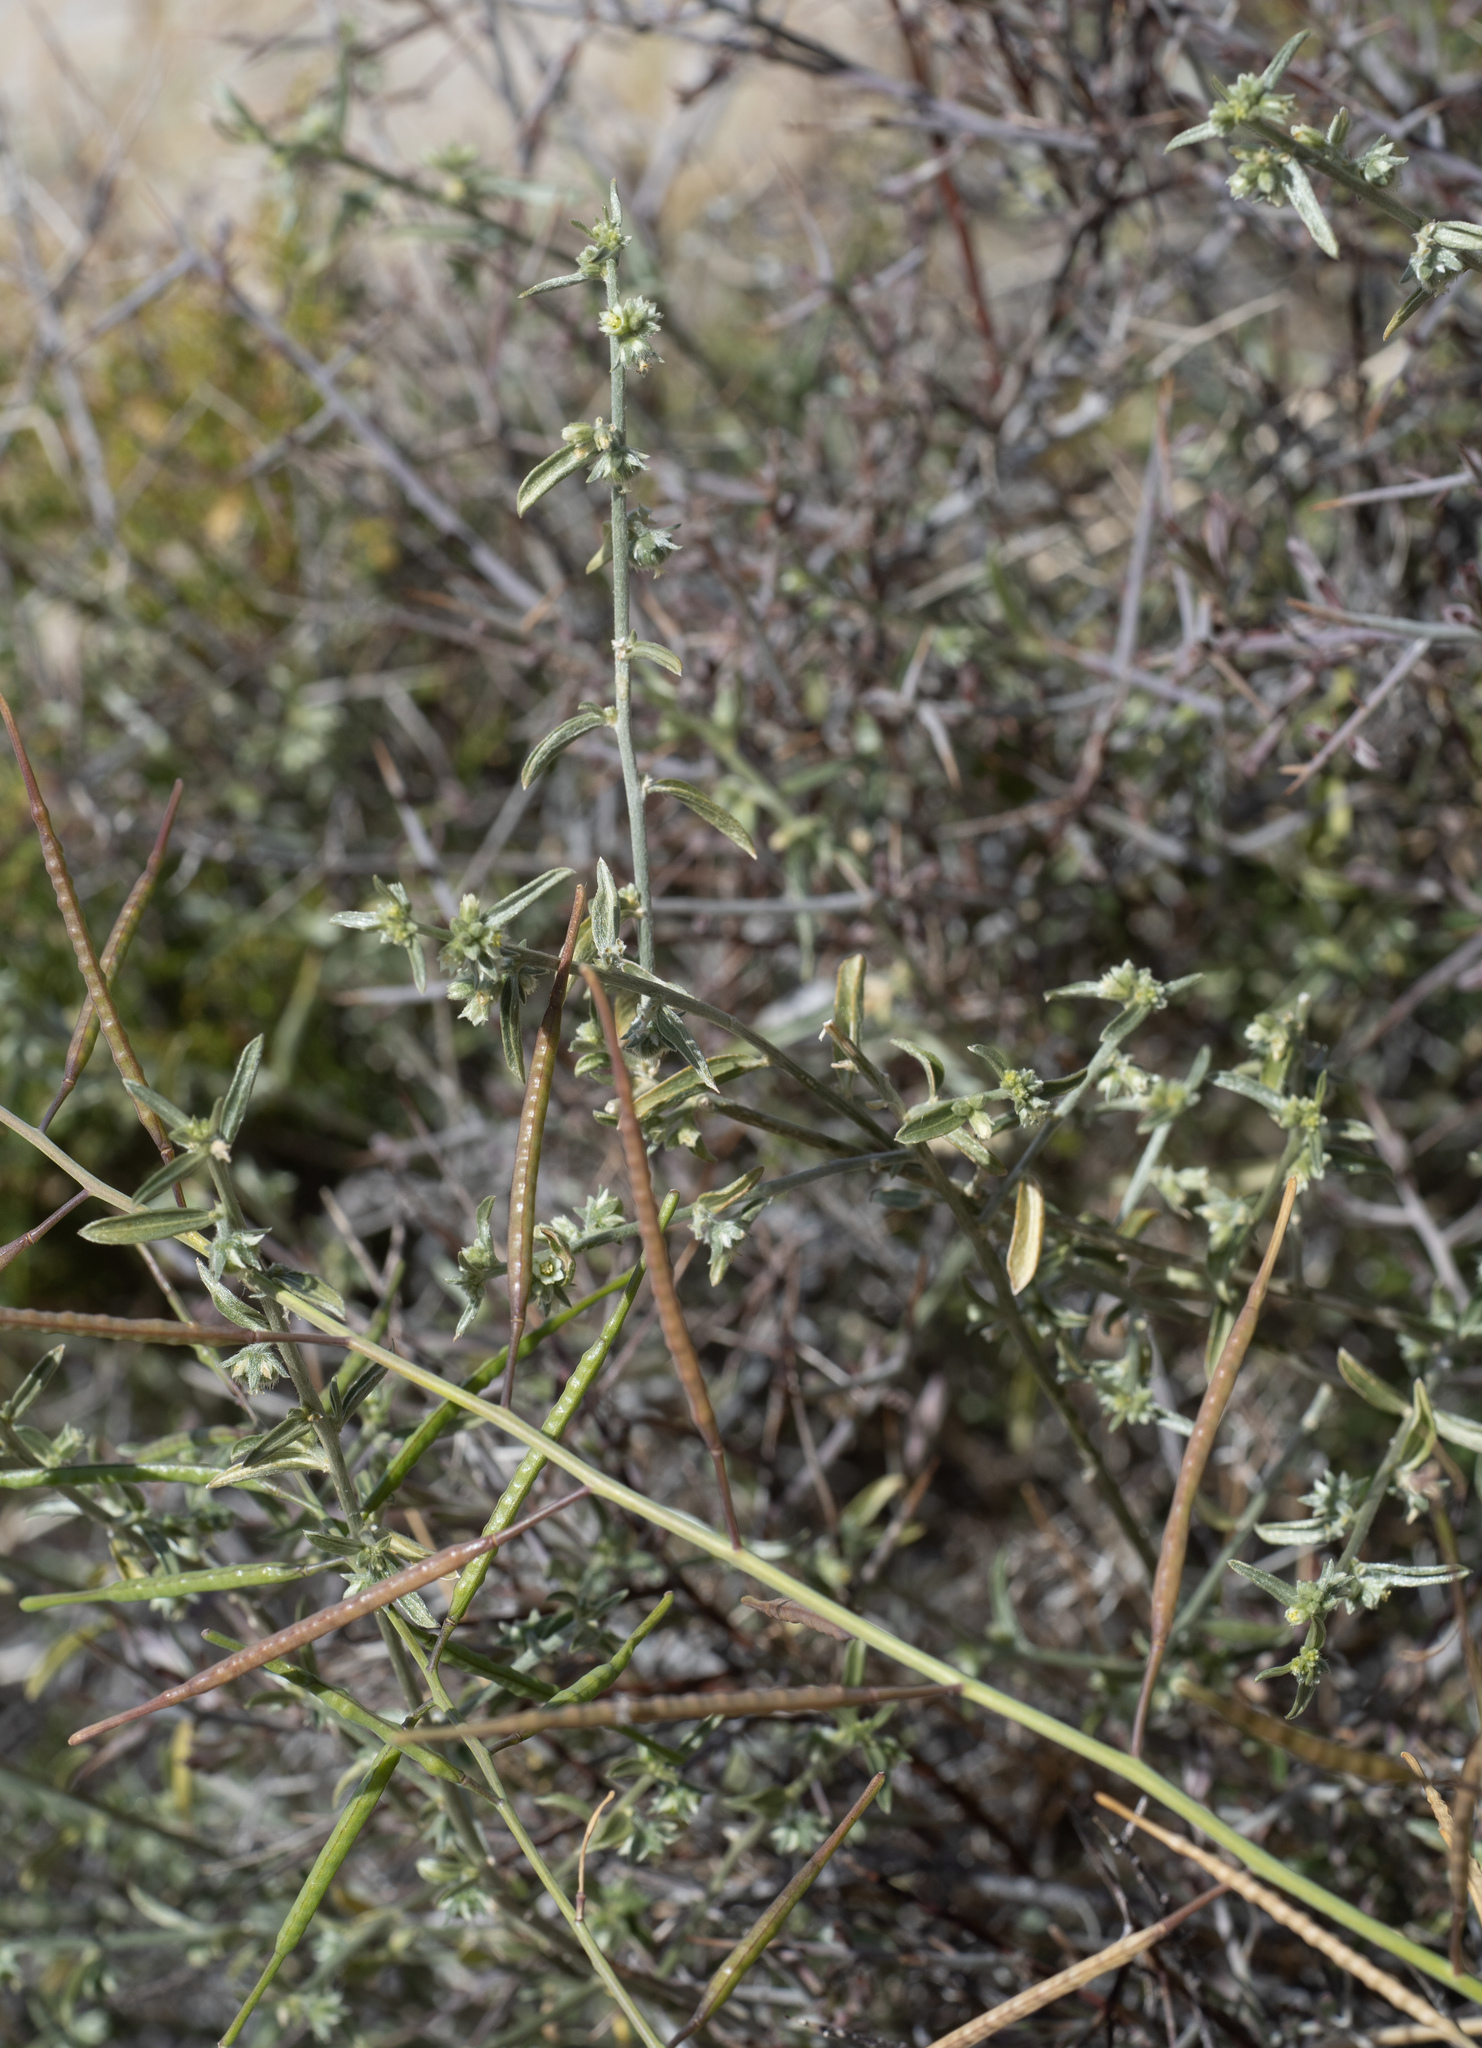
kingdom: Plantae
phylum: Tracheophyta
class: Magnoliopsida
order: Malpighiales
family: Euphorbiaceae
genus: Ditaxis
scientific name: Ditaxis lanceolata
